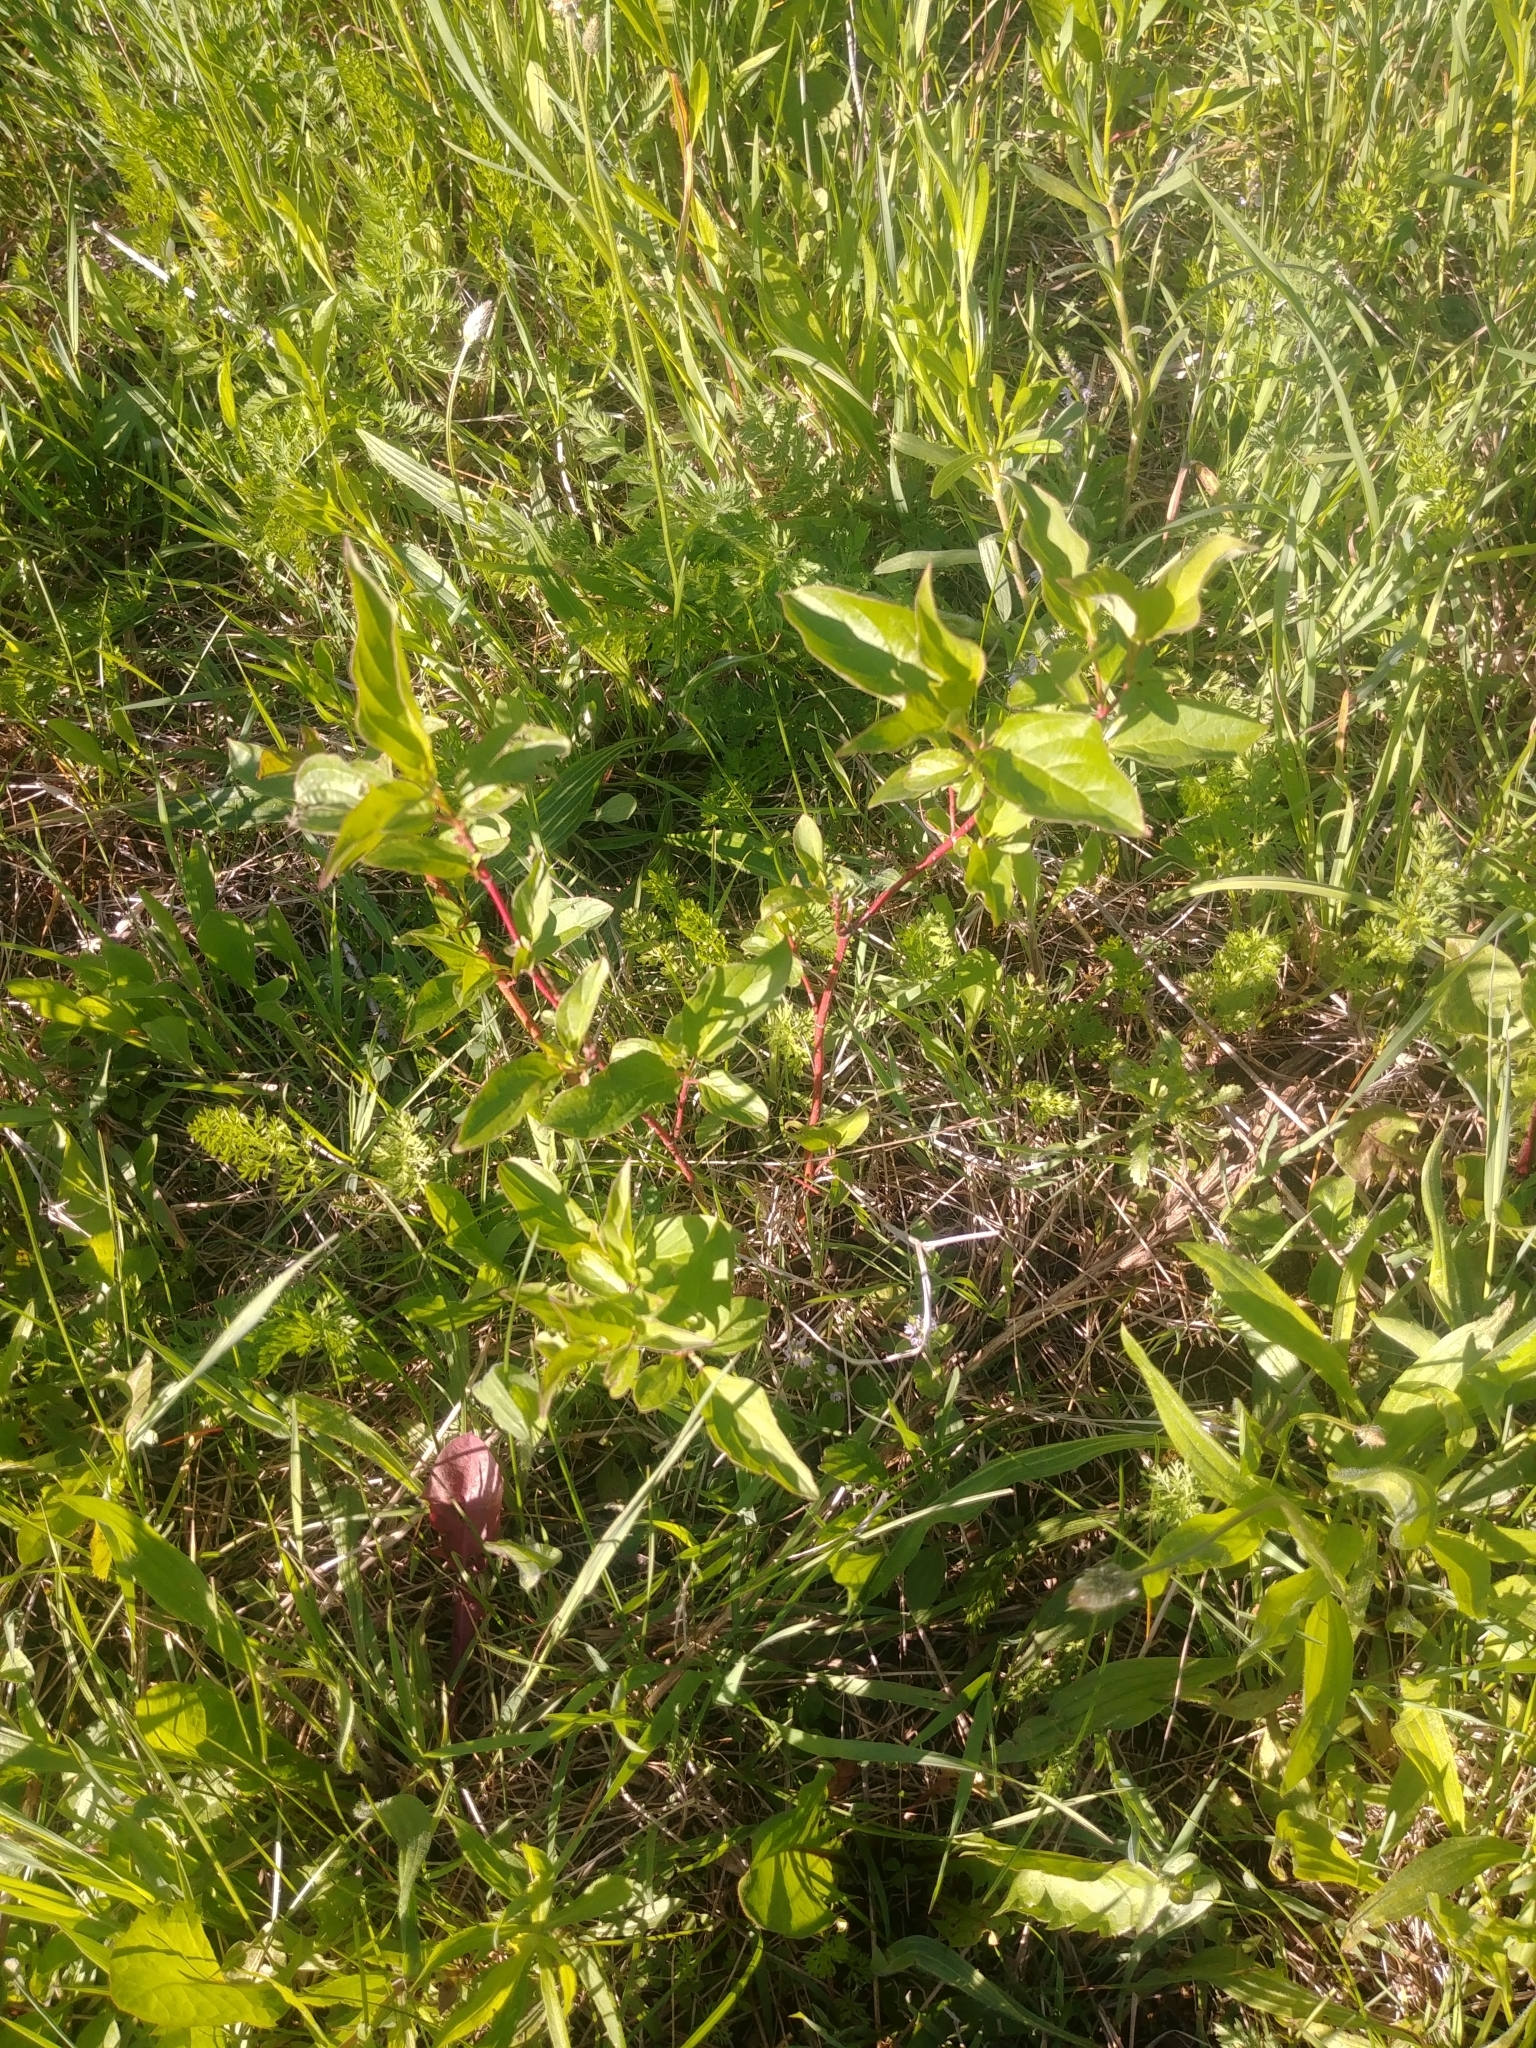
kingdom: Plantae
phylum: Tracheophyta
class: Magnoliopsida
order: Cornales
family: Cornaceae
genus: Cornus
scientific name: Cornus sericea
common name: Red-osier dogwood
